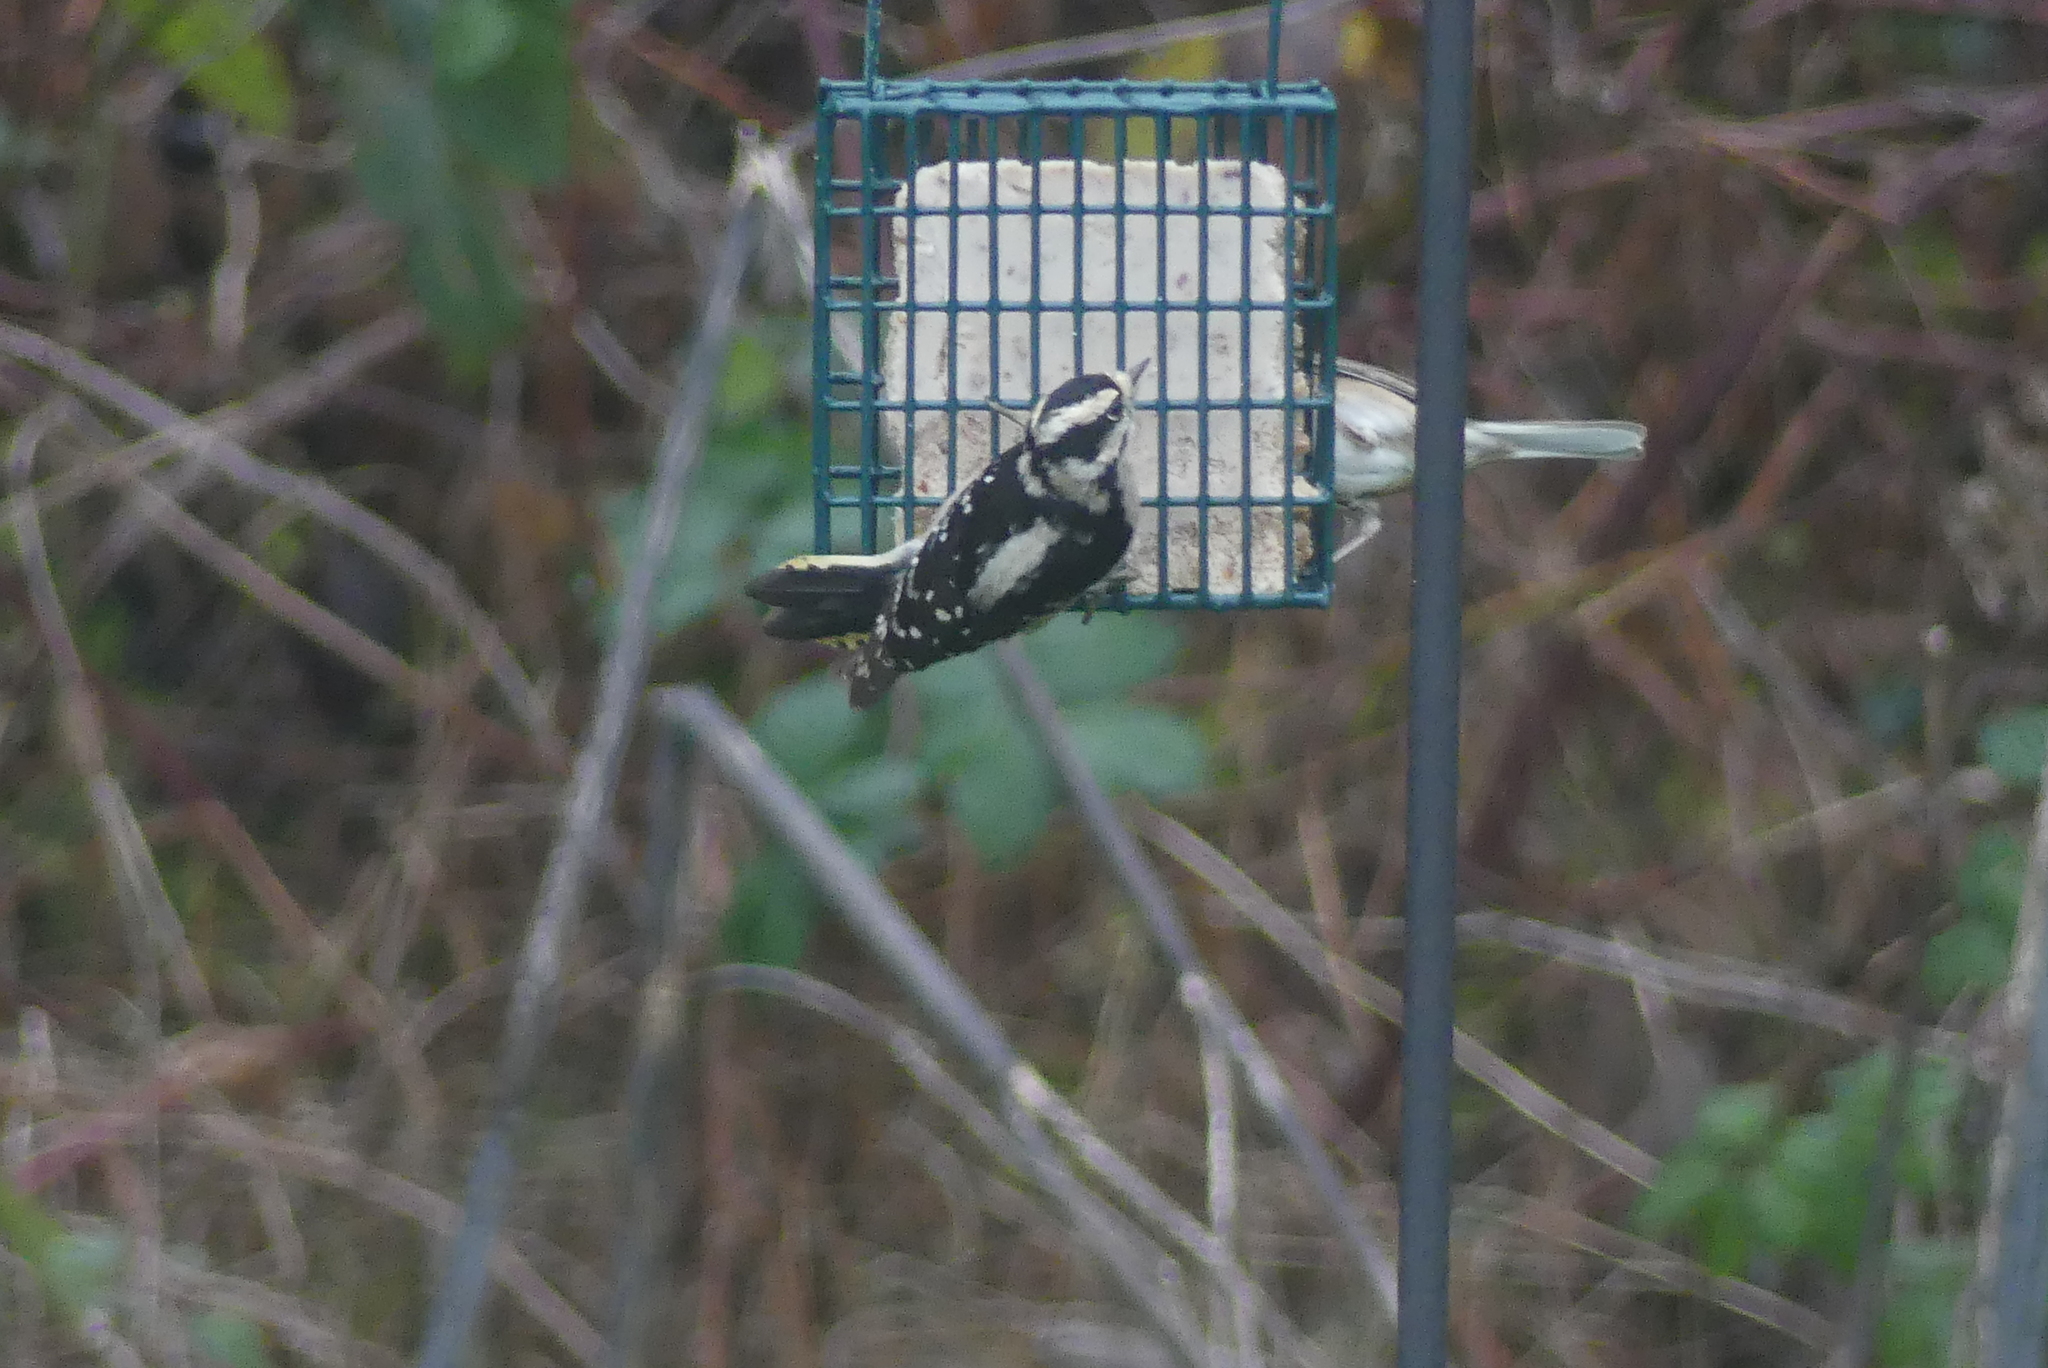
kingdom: Animalia
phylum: Chordata
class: Aves
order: Piciformes
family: Picidae
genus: Dryobates
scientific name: Dryobates pubescens
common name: Downy woodpecker
